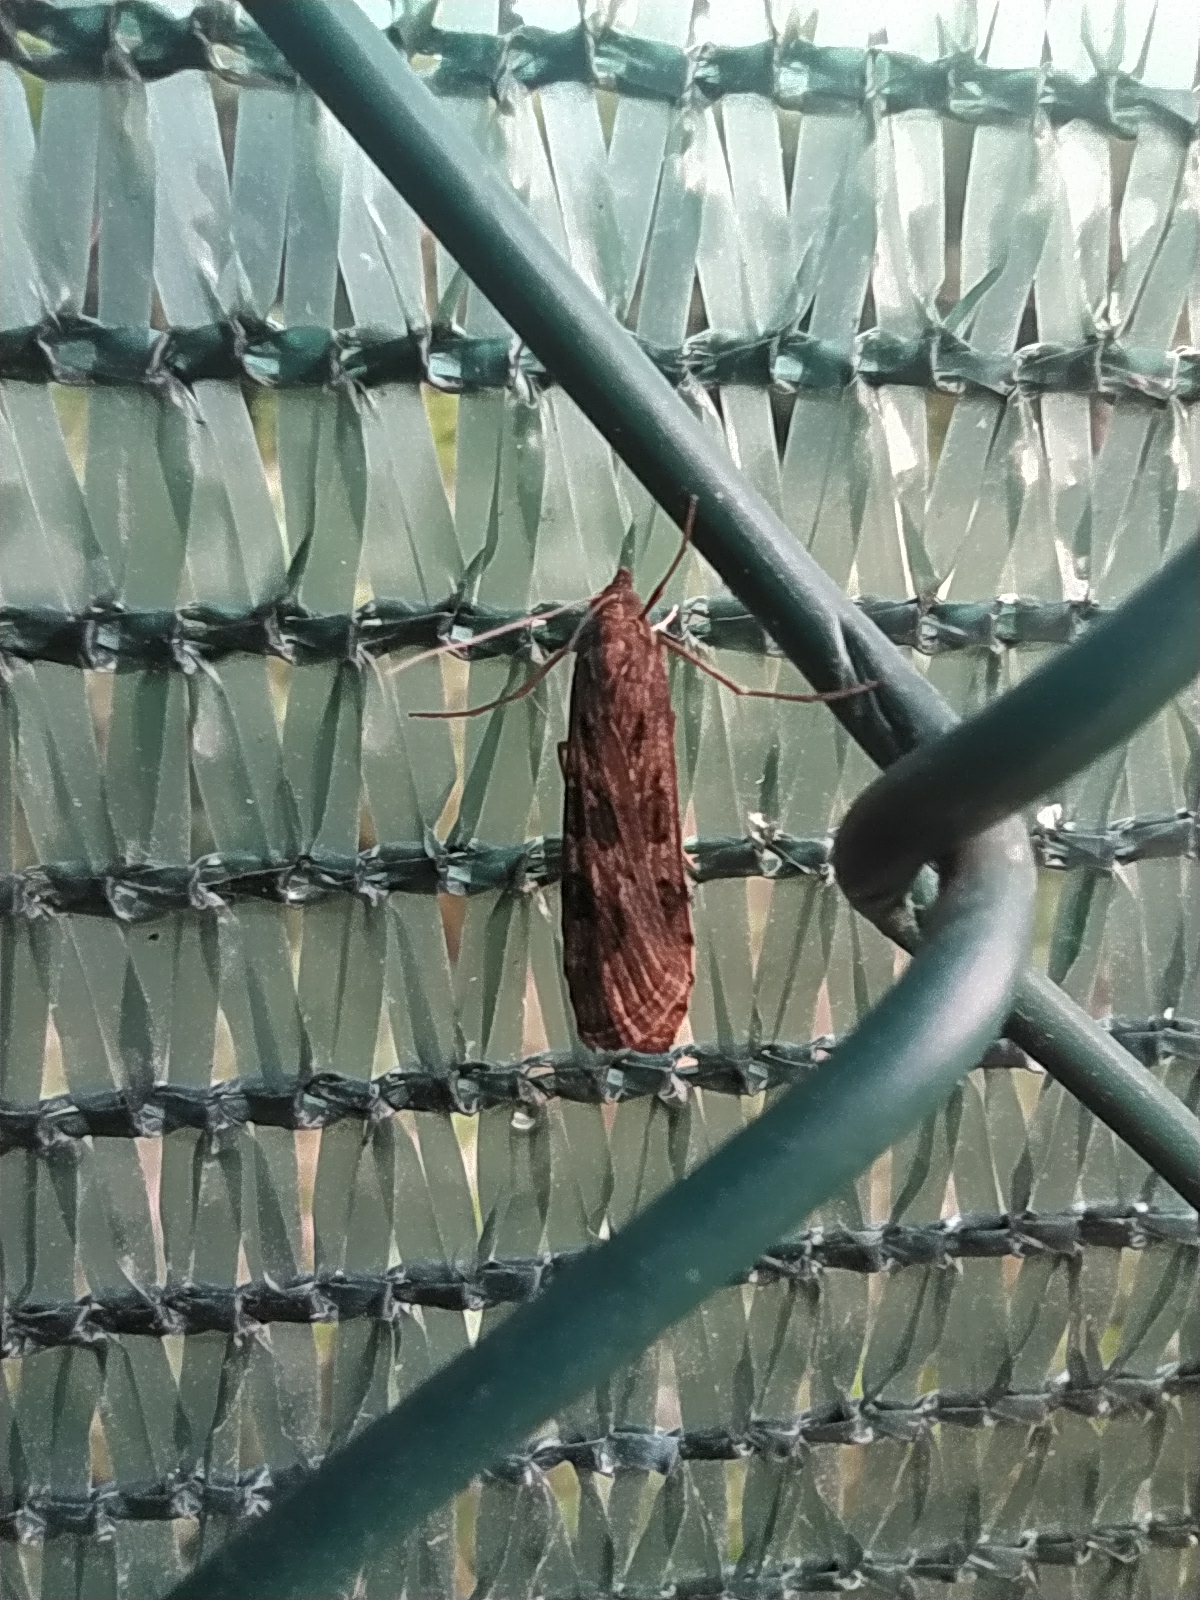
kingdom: Animalia
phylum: Arthropoda
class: Insecta
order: Lepidoptera
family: Crambidae
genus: Nomophila
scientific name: Nomophila noctuella
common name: Rush veneer
